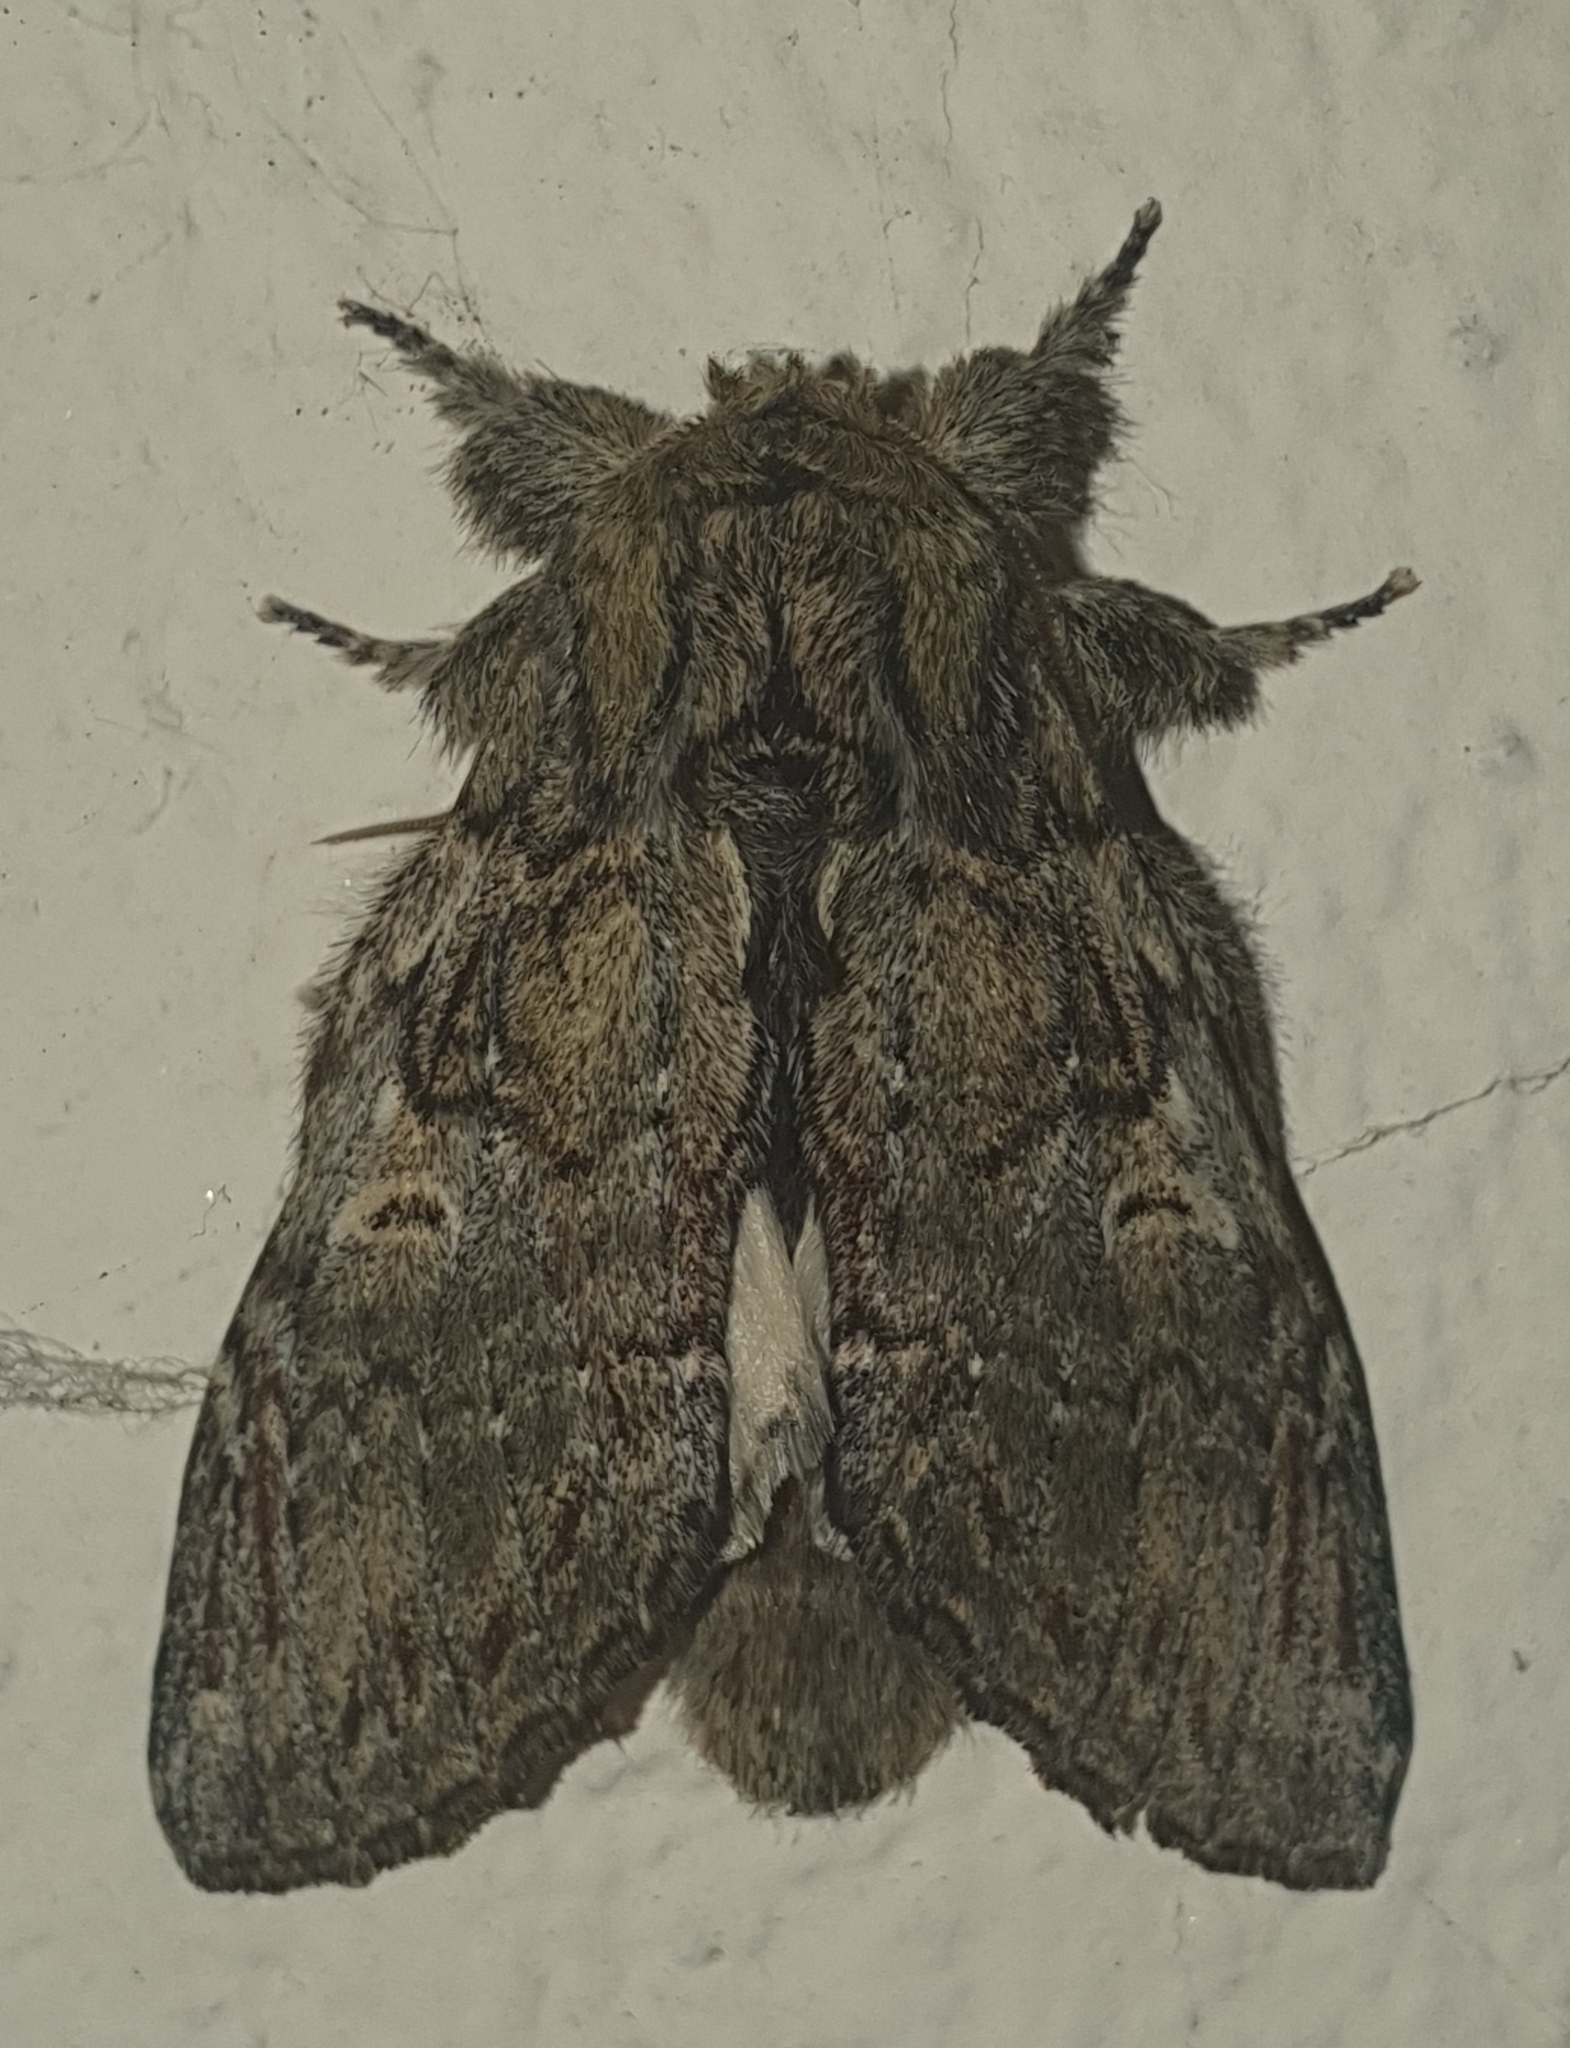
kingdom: Animalia
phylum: Arthropoda
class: Insecta
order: Lepidoptera
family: Notodontidae
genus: Peridea
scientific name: Peridea anceps
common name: Great prominent
